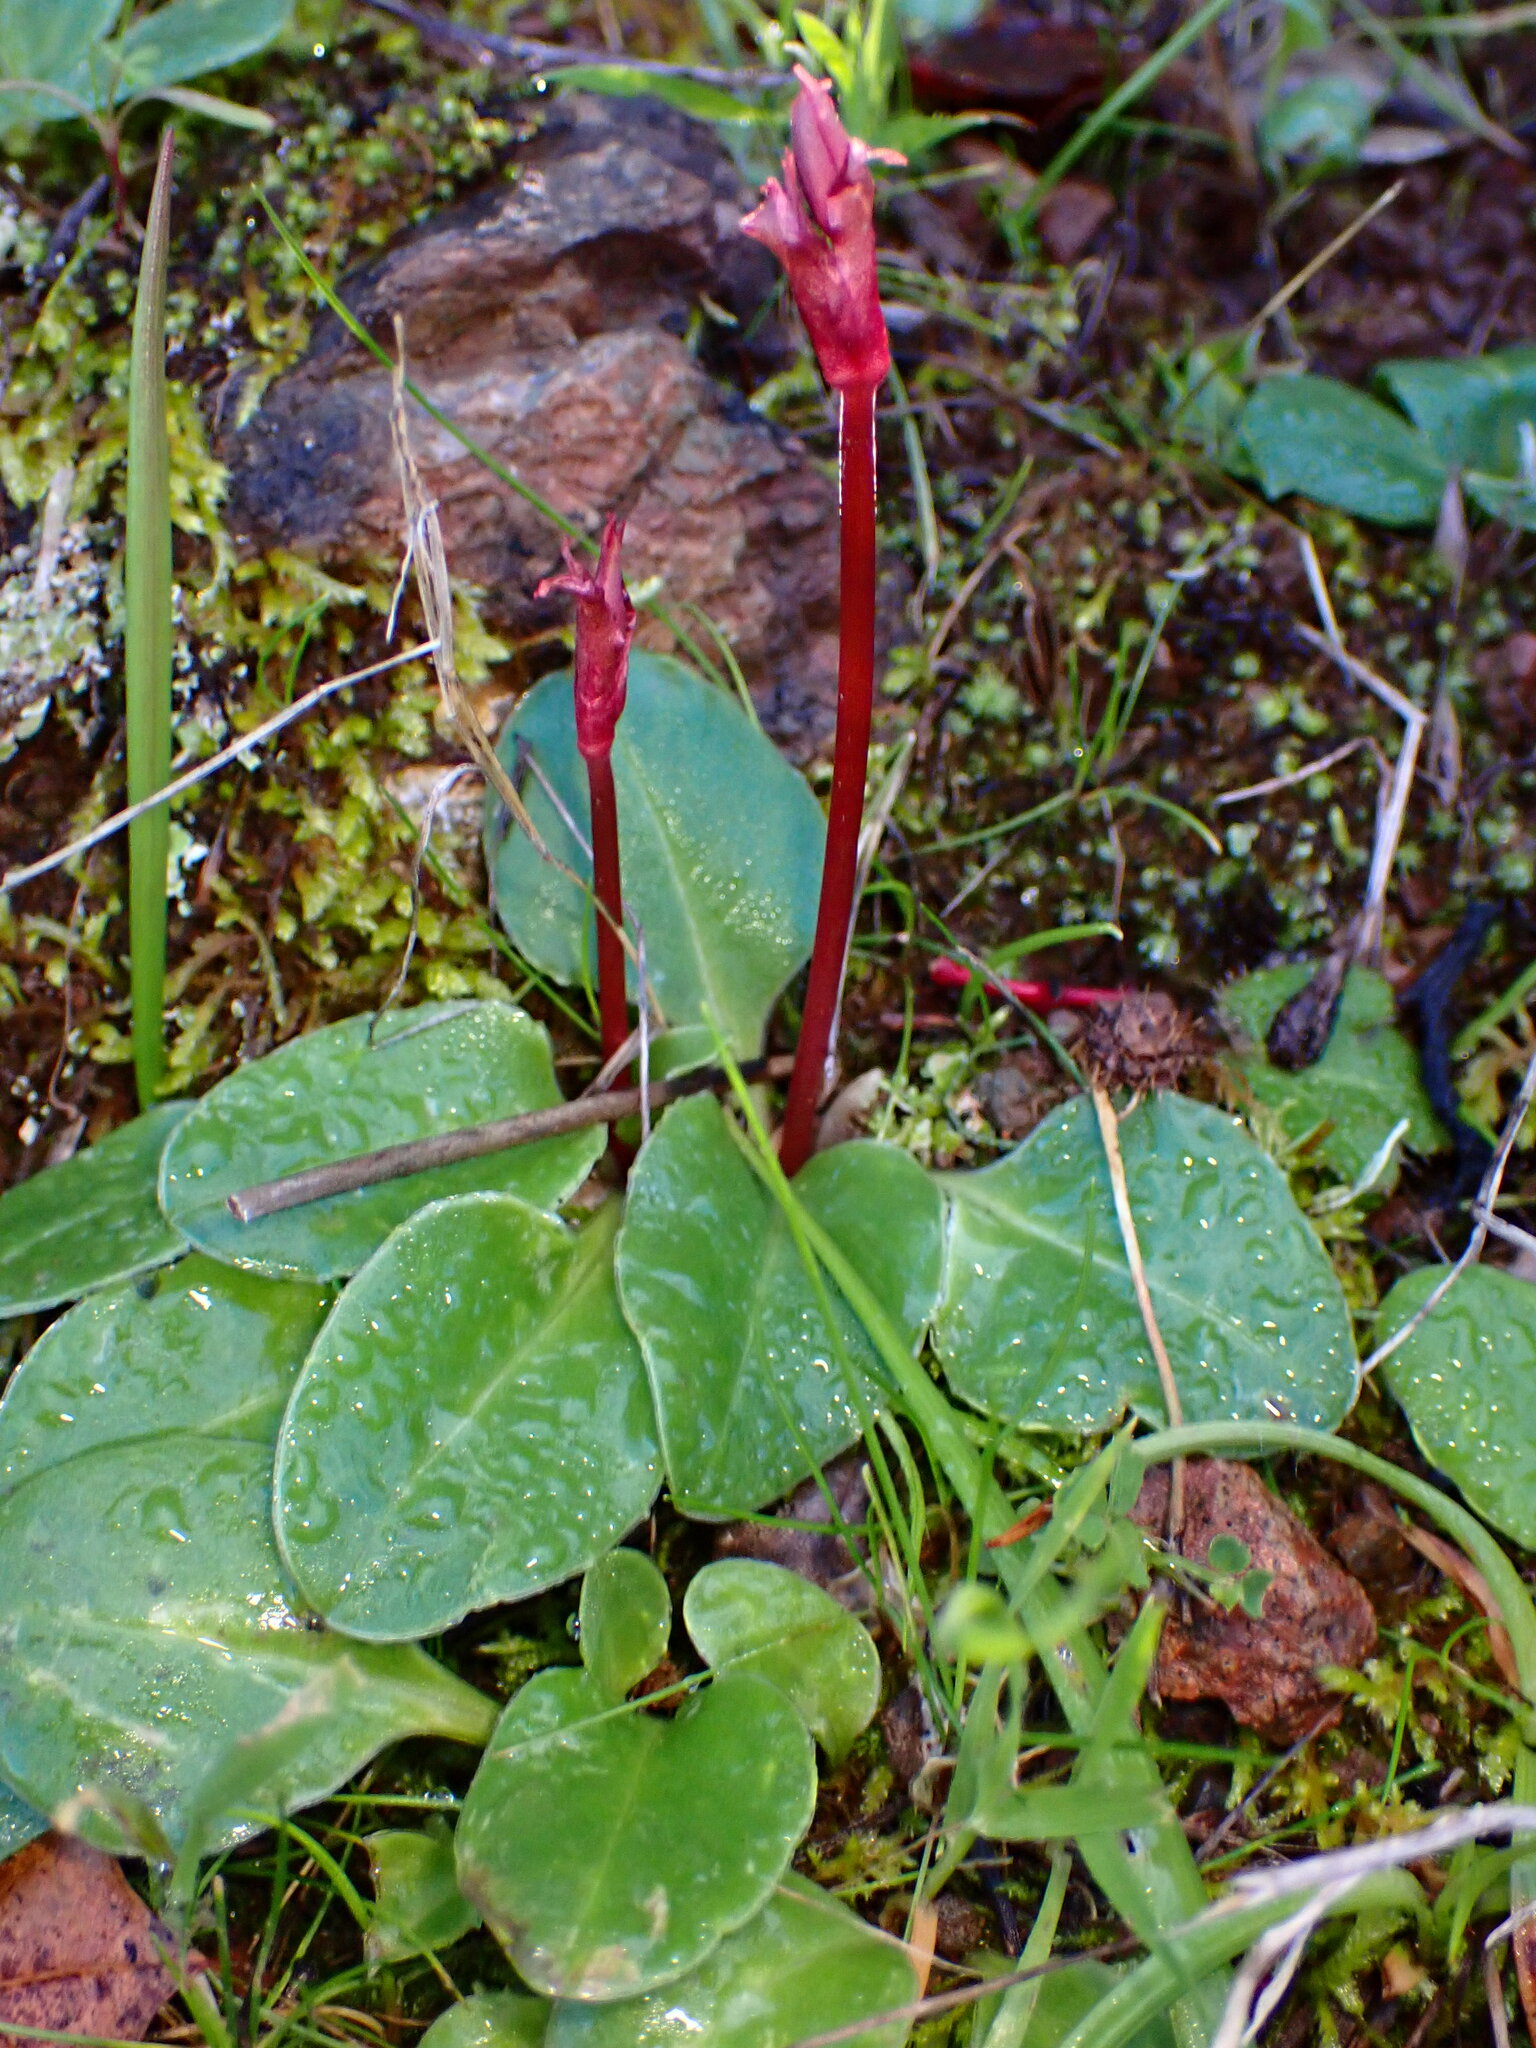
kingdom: Plantae
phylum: Tracheophyta
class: Magnoliopsida
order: Ericales
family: Primulaceae
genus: Dodecatheon
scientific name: Dodecatheon hendersonii
